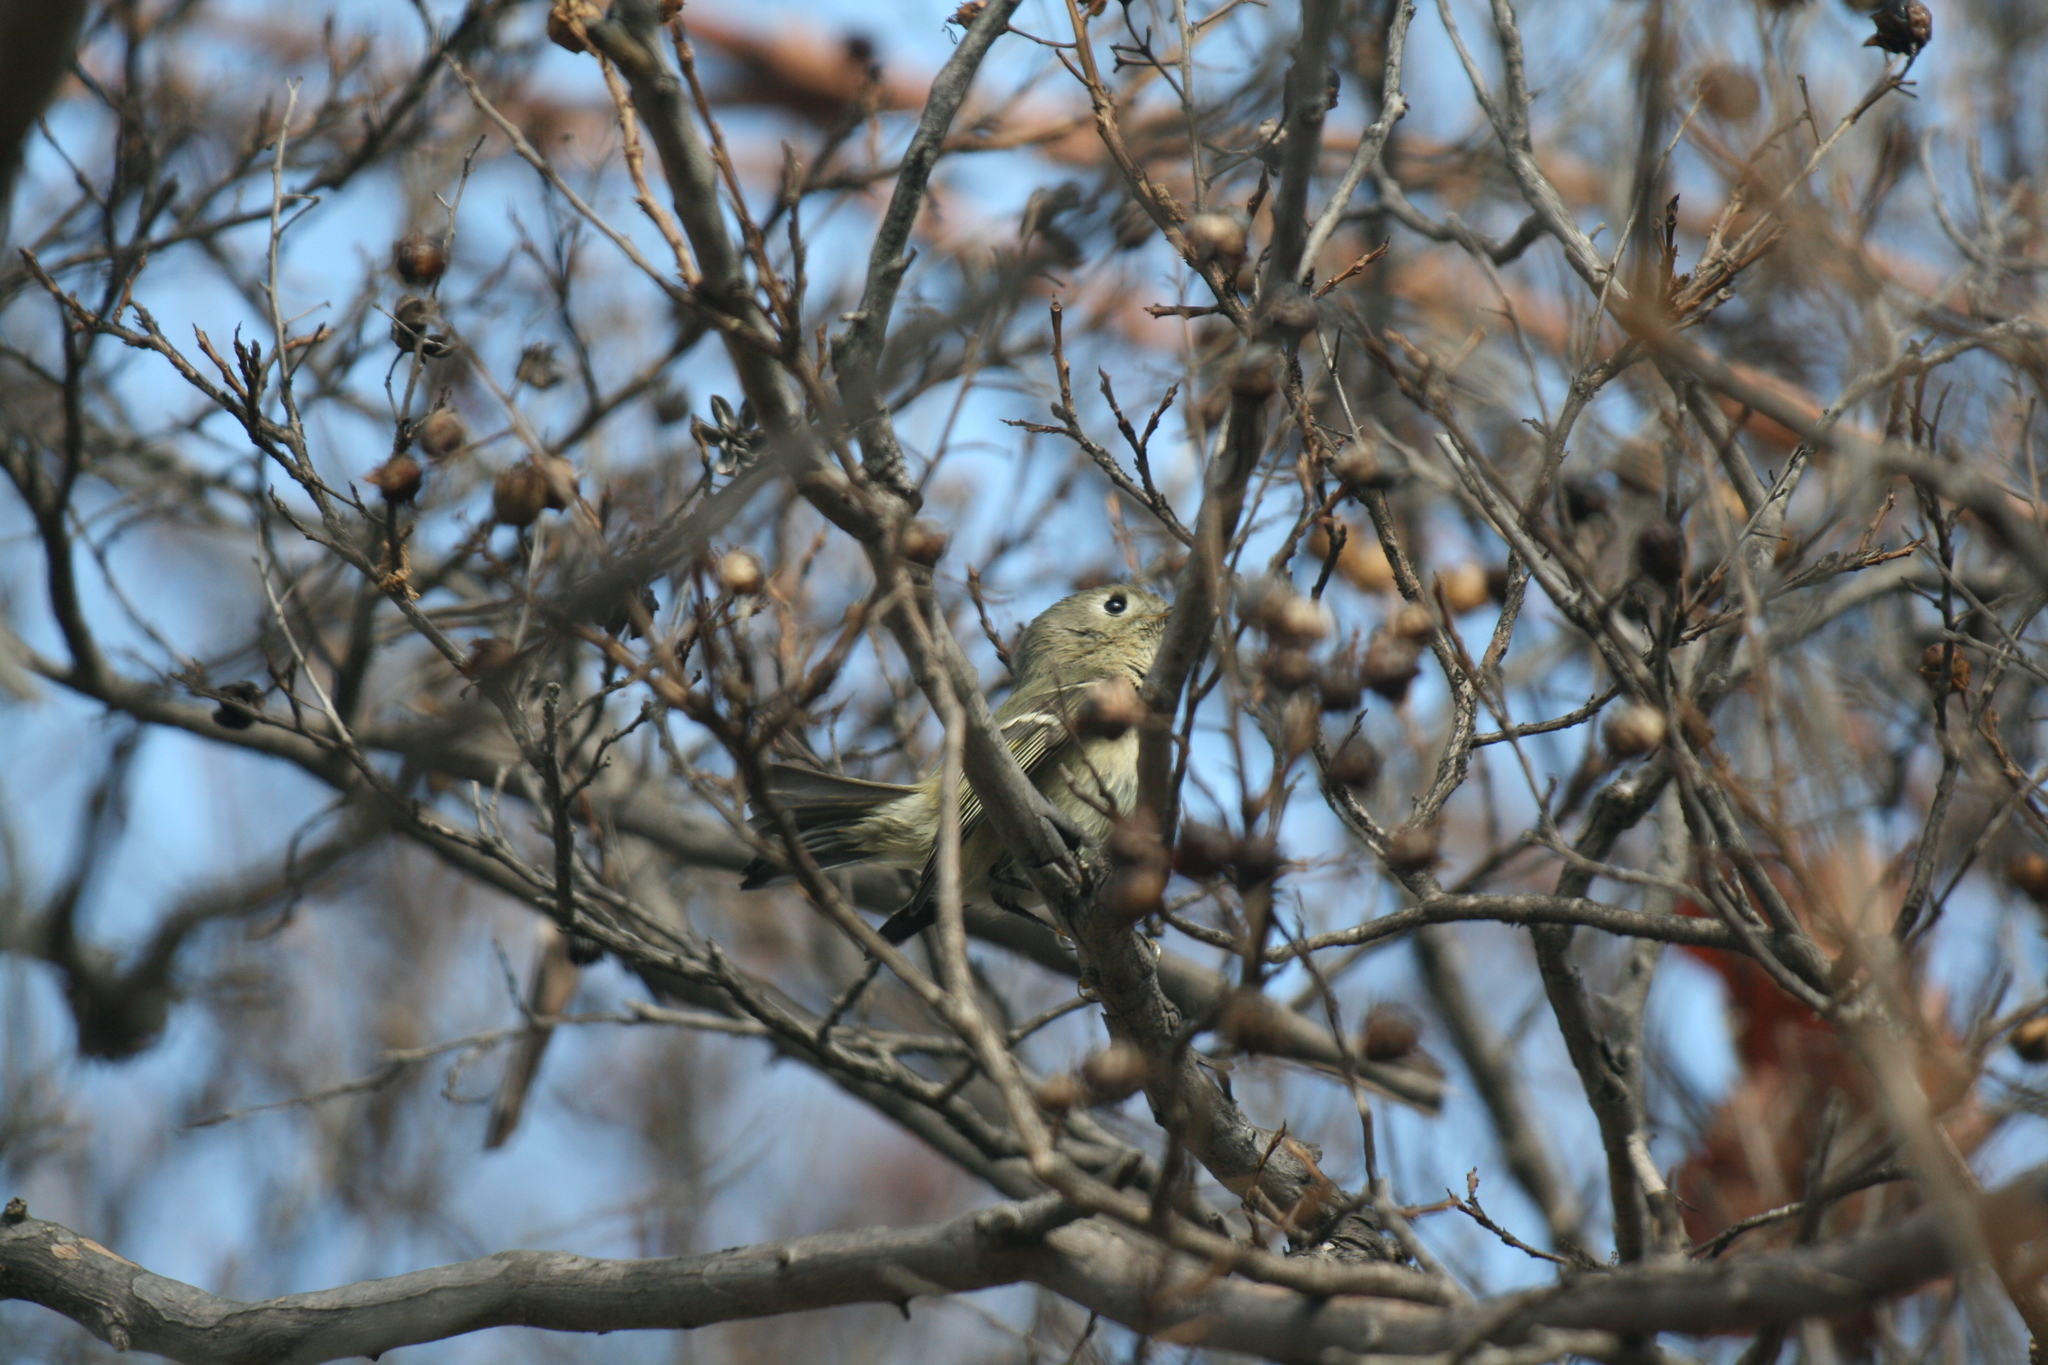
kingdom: Animalia
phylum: Chordata
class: Aves
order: Passeriformes
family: Regulidae
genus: Regulus
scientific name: Regulus calendula
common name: Ruby-crowned kinglet
